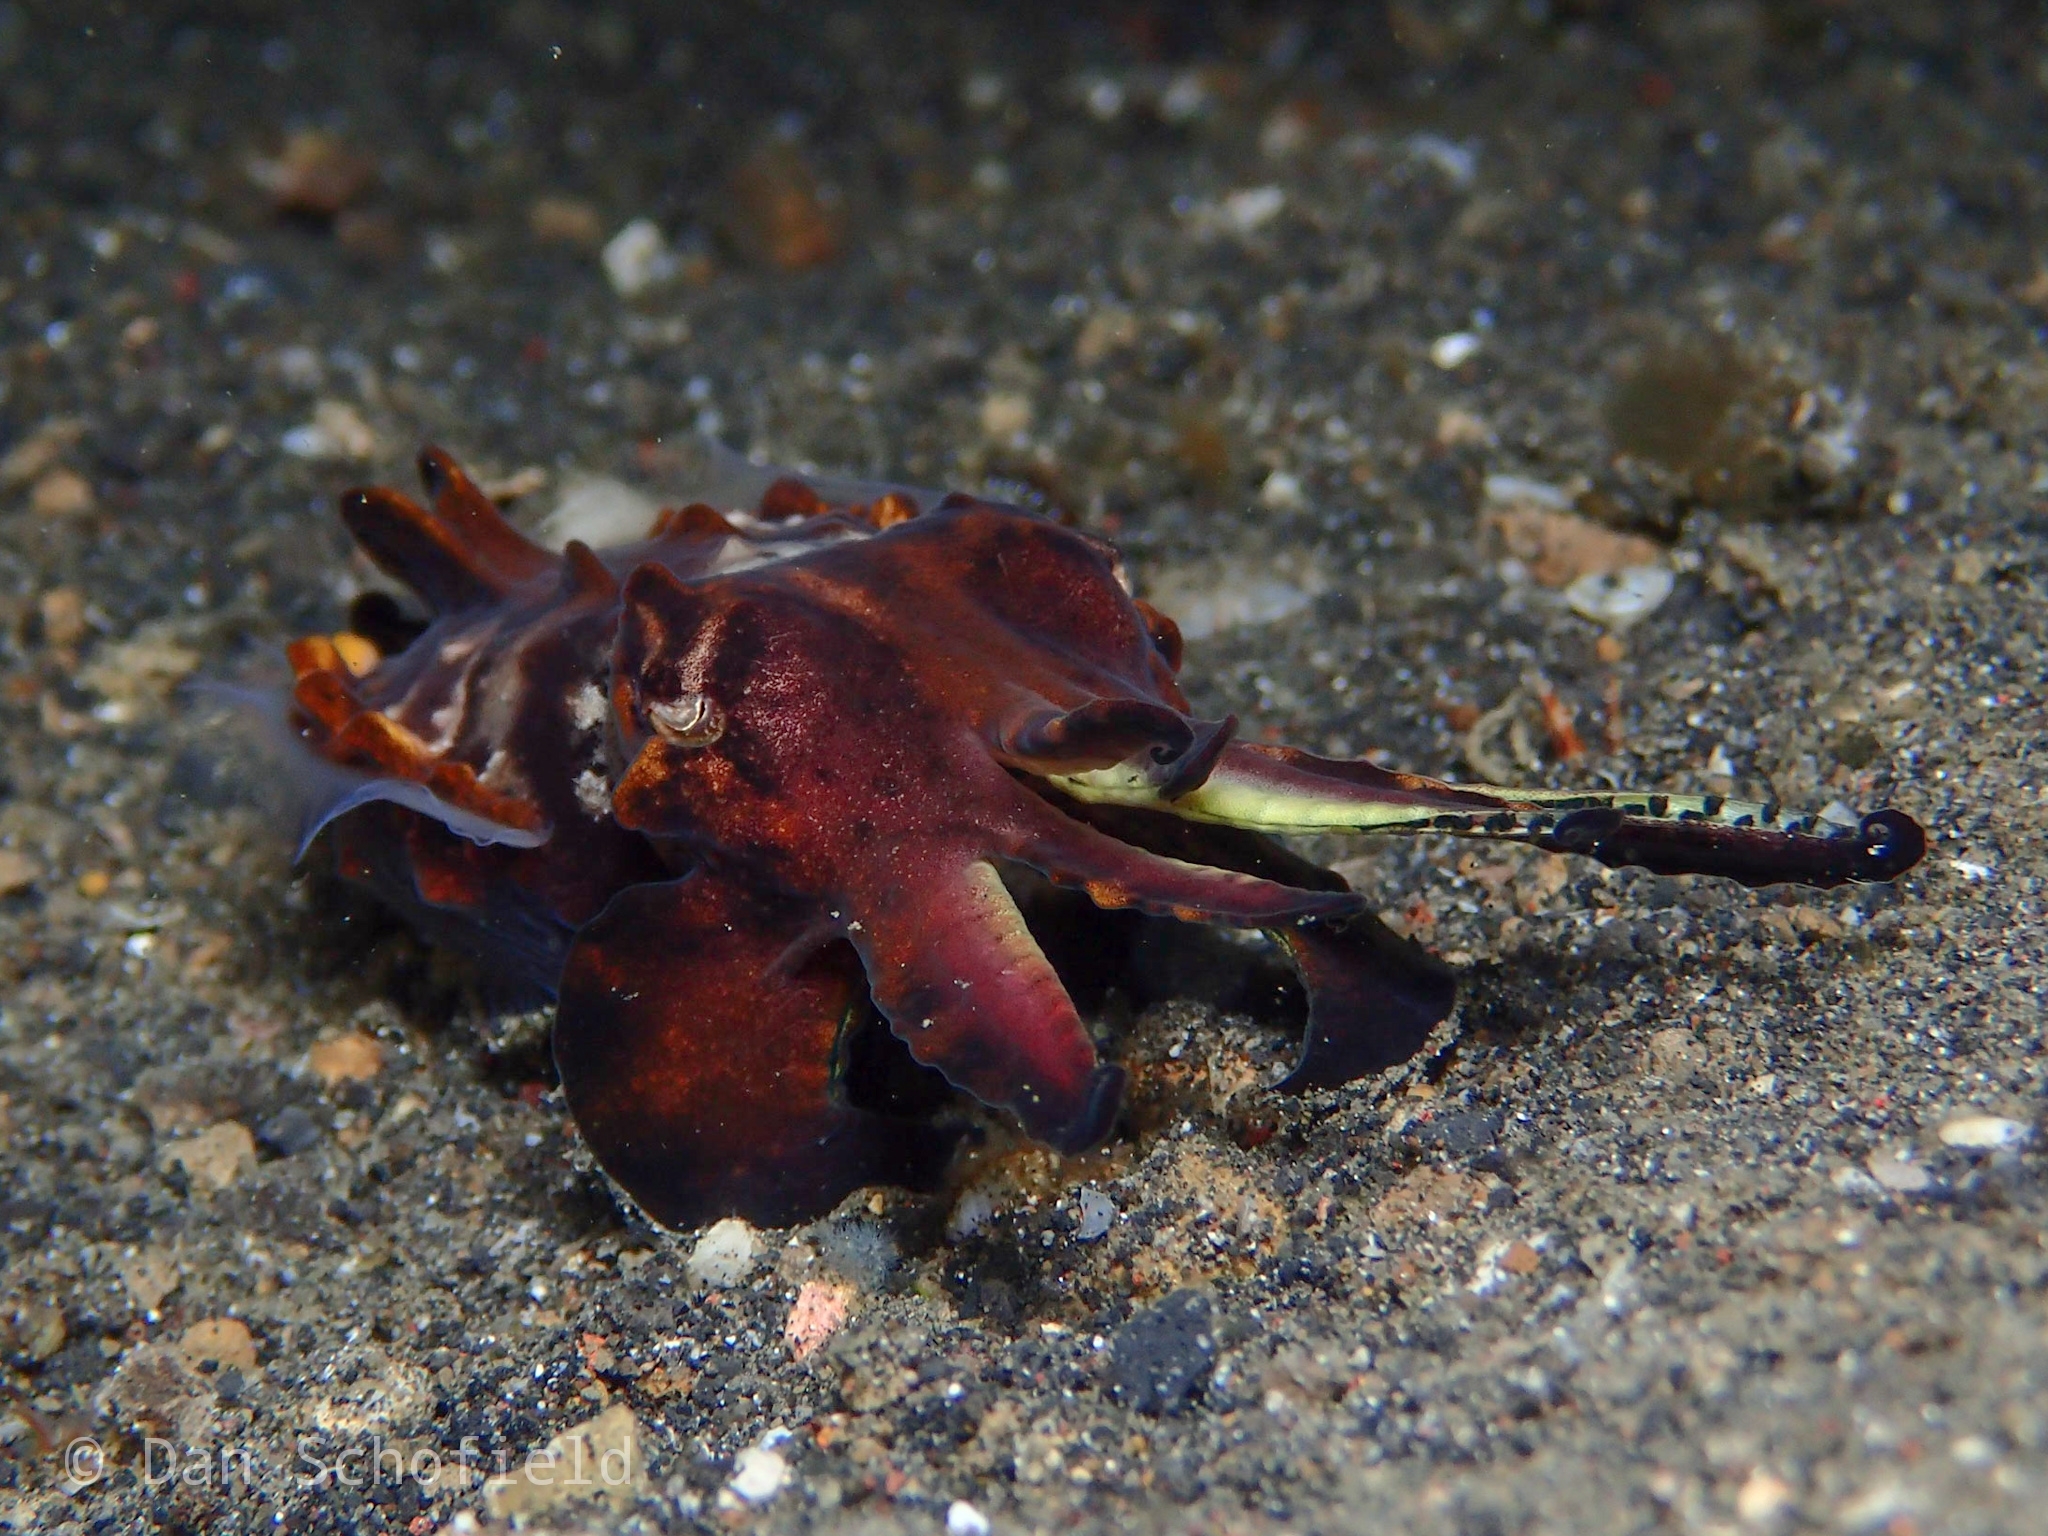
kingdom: Animalia
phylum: Mollusca
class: Cephalopoda
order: Sepiida
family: Sepiidae
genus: Ascarosepion
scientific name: Ascarosepion pfefferi
